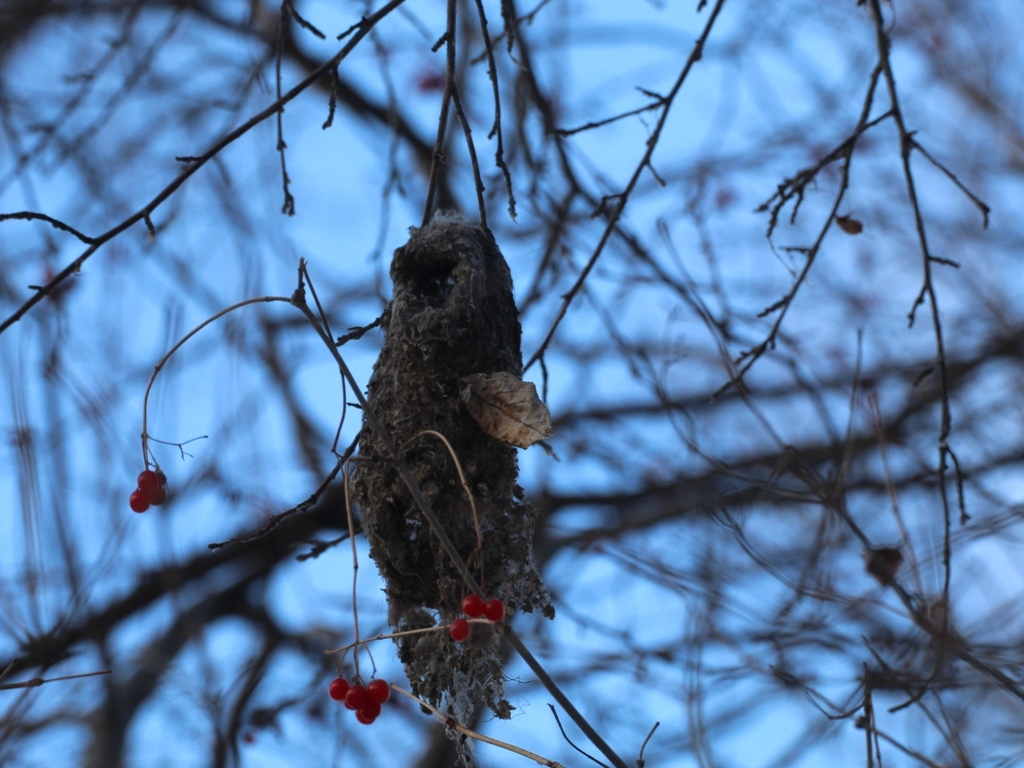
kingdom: Animalia
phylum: Chordata
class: Aves
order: Passeriformes
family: Remizidae
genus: Remiz
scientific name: Remiz pendulinus
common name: Eurasian penduline tit
